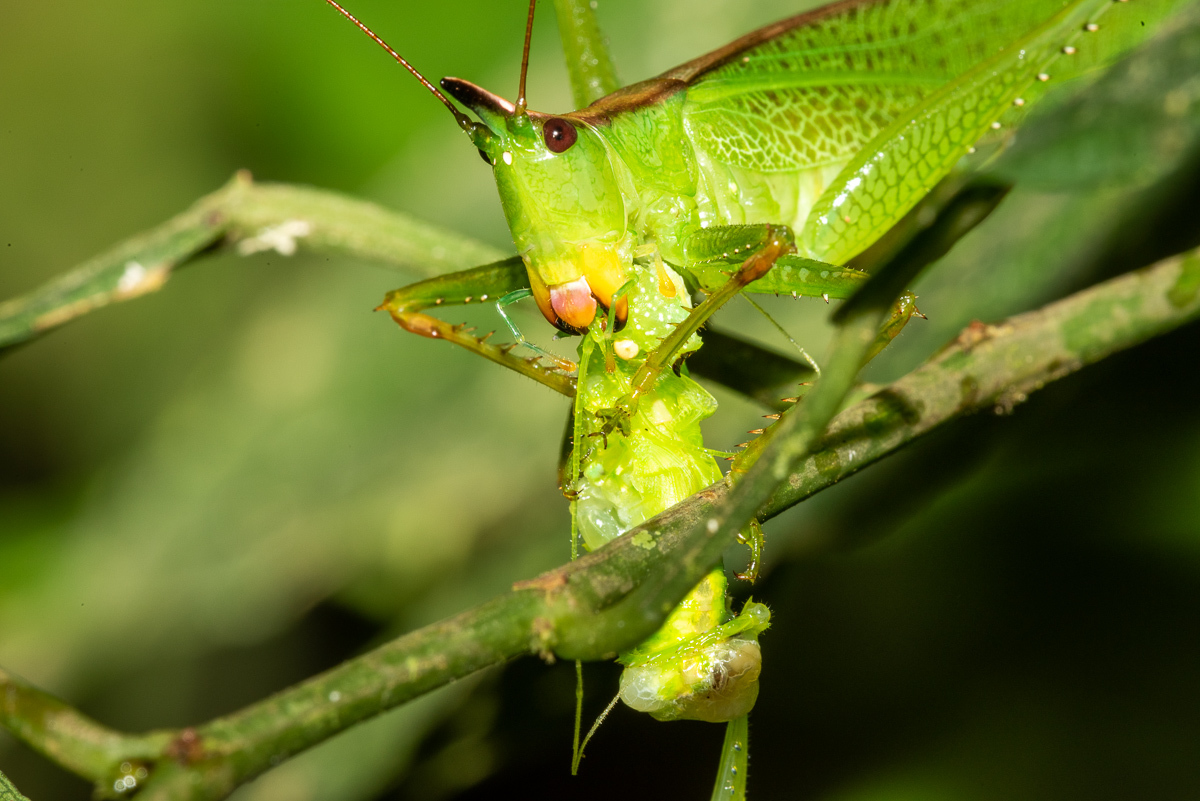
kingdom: Animalia
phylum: Arthropoda
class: Insecta
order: Orthoptera
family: Tettigoniidae
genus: Melanophoxus
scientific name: Melanophoxus brunneri
